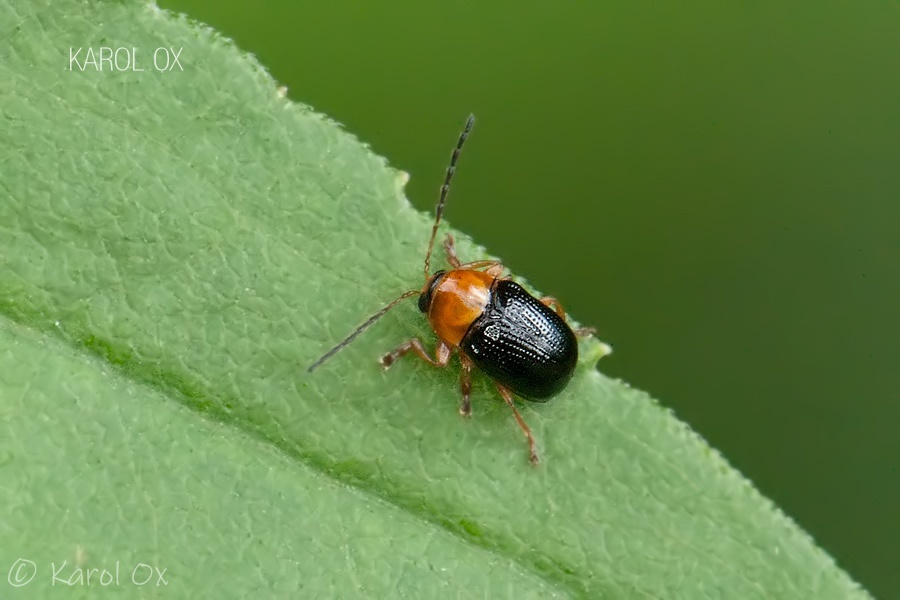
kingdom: Animalia
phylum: Arthropoda
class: Insecta
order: Coleoptera
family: Chrysomelidae
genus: Cryptocephalus
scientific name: Cryptocephalus pusillus
